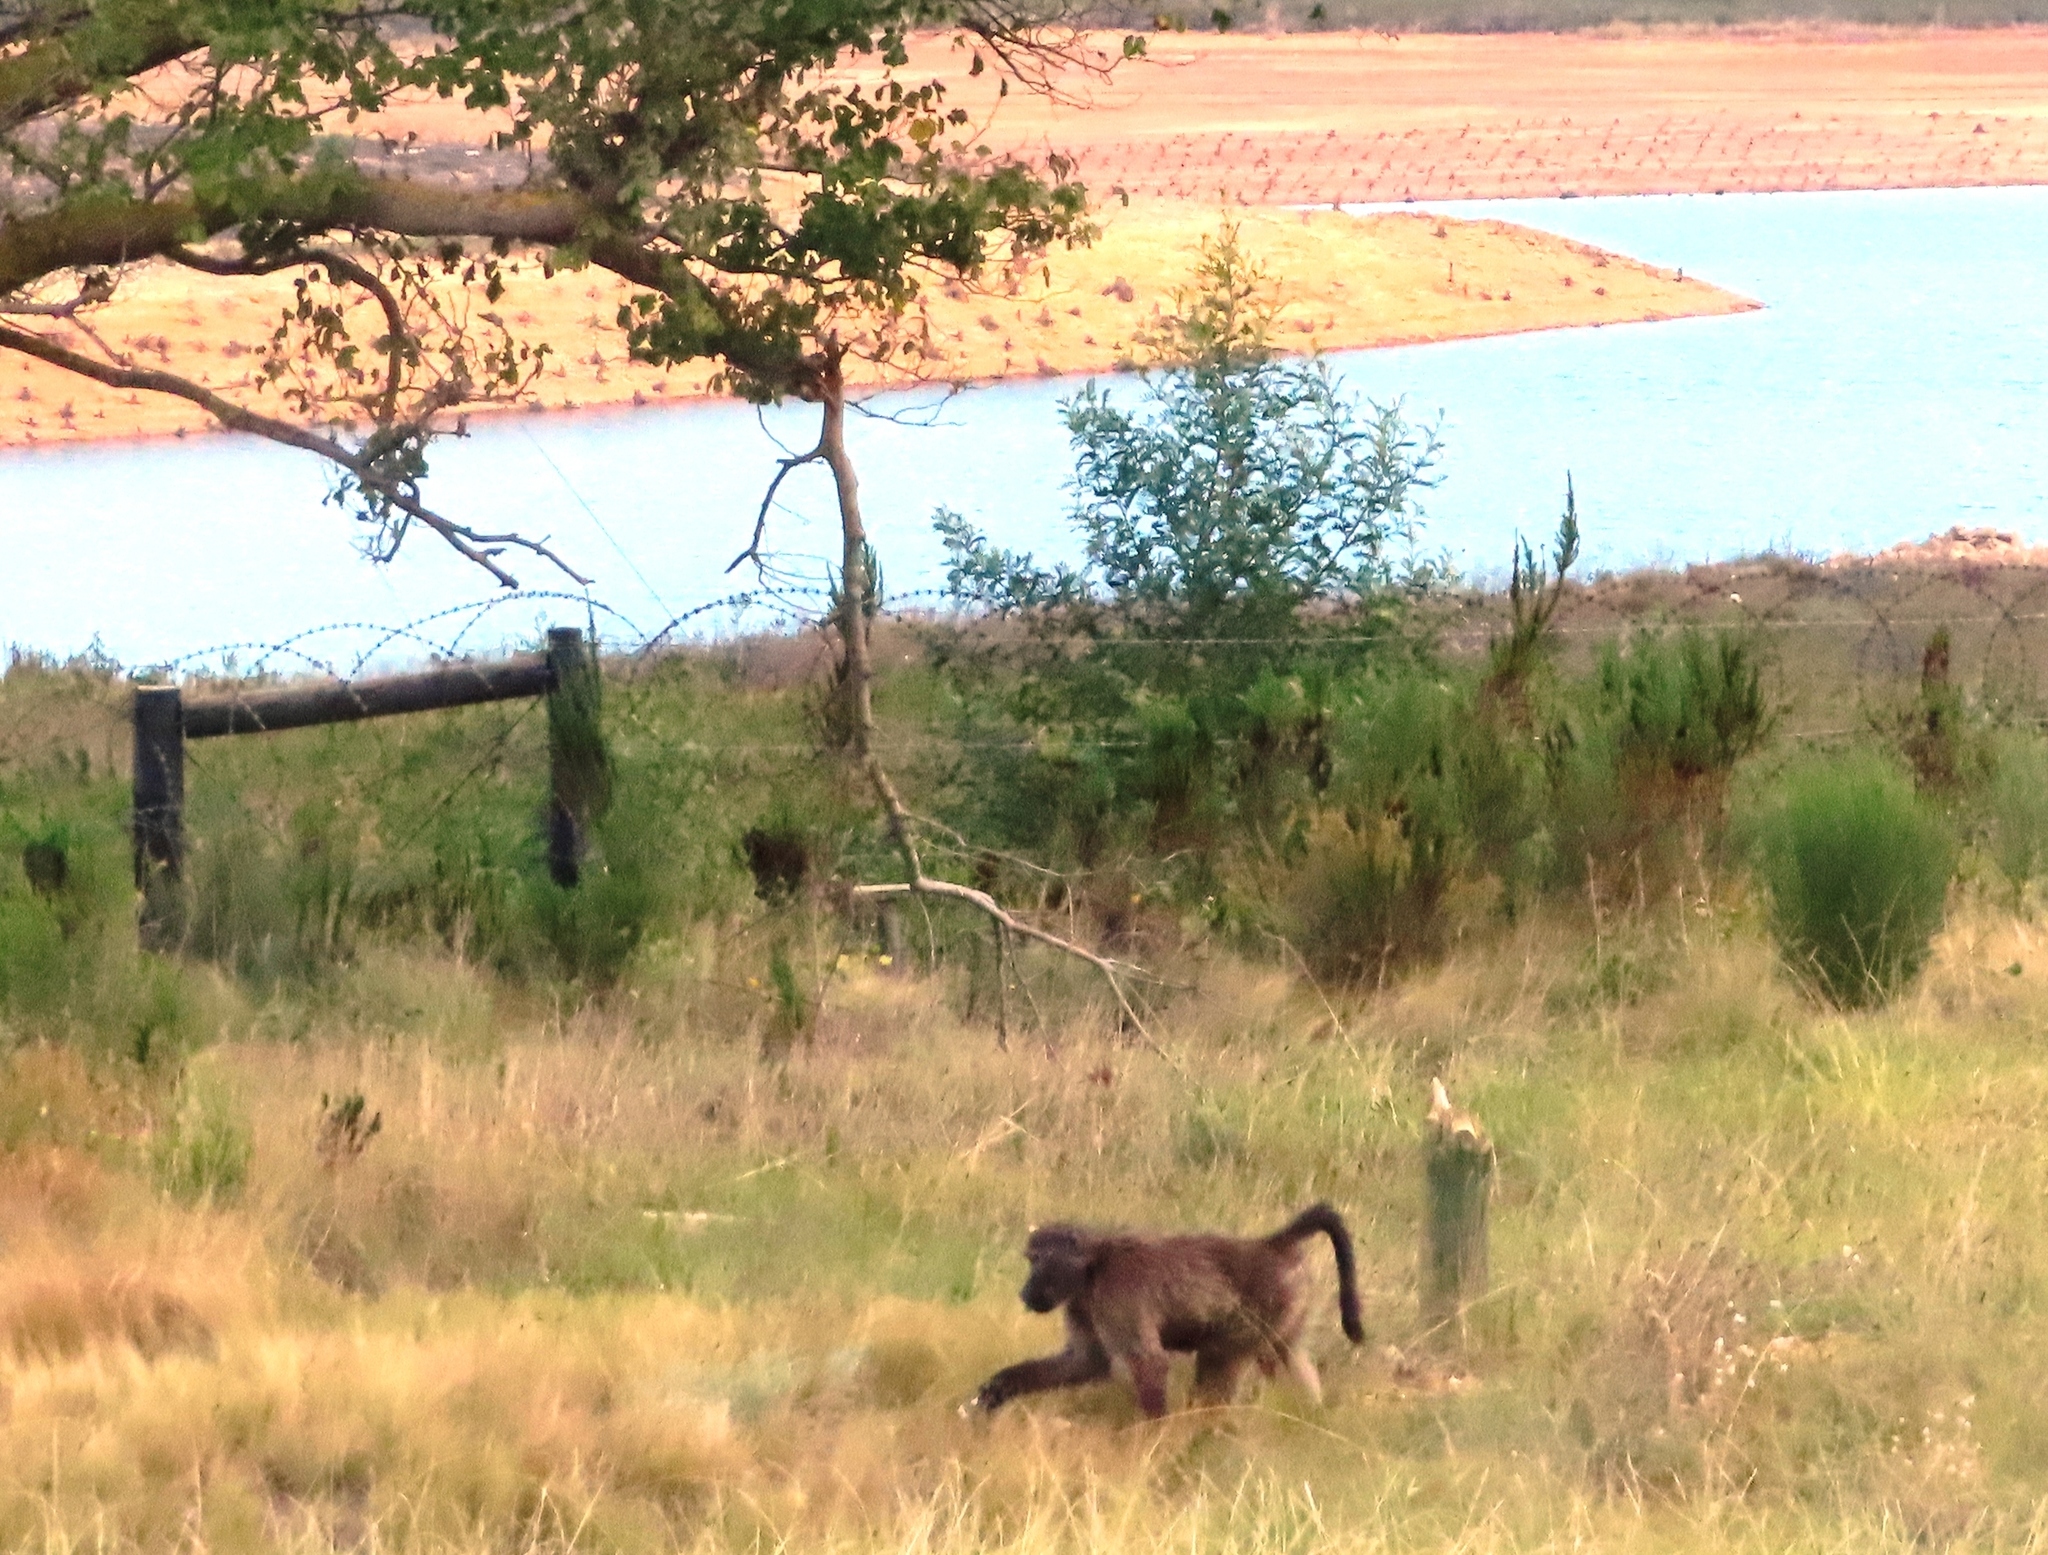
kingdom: Animalia
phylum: Chordata
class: Mammalia
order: Primates
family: Cercopithecidae
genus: Papio
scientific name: Papio ursinus
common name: Chacma baboon
